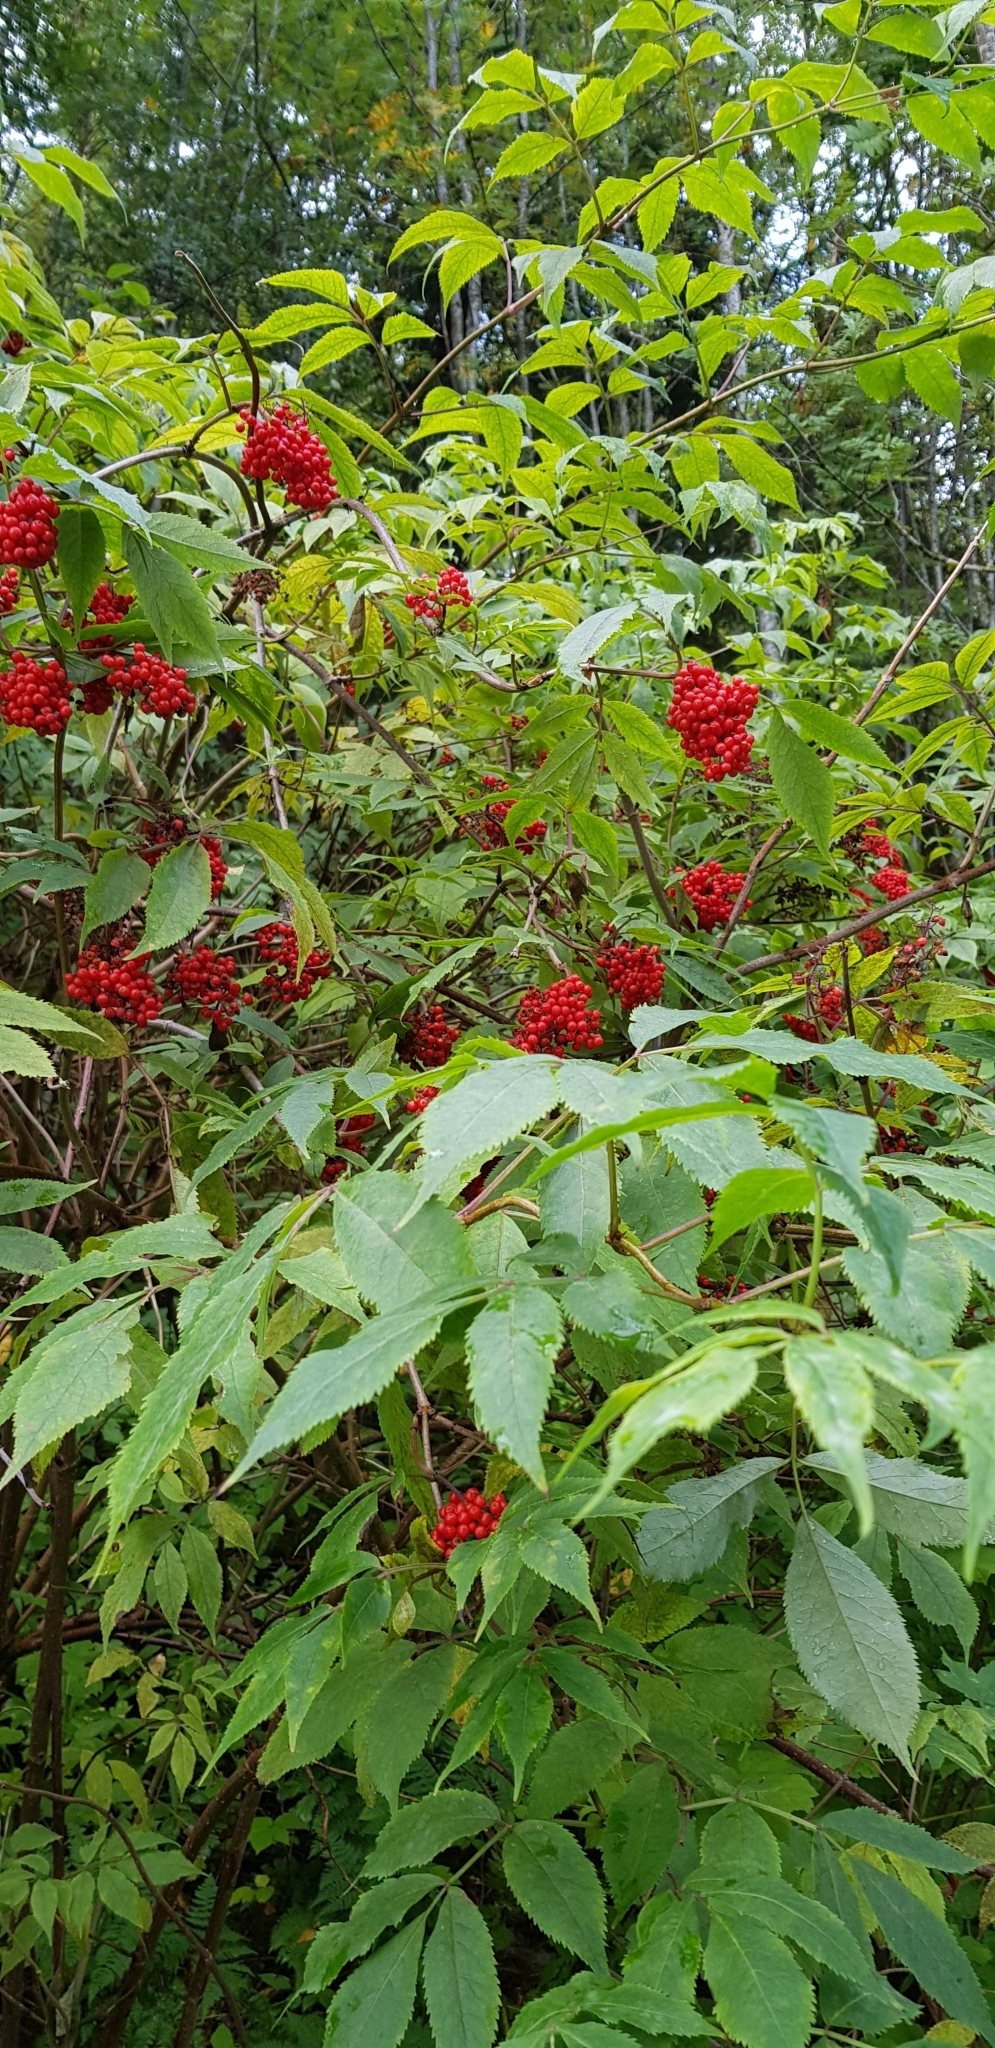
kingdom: Plantae
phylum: Tracheophyta
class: Magnoliopsida
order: Dipsacales
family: Viburnaceae
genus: Sambucus
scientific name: Sambucus racemosa
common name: Red-berried elder
